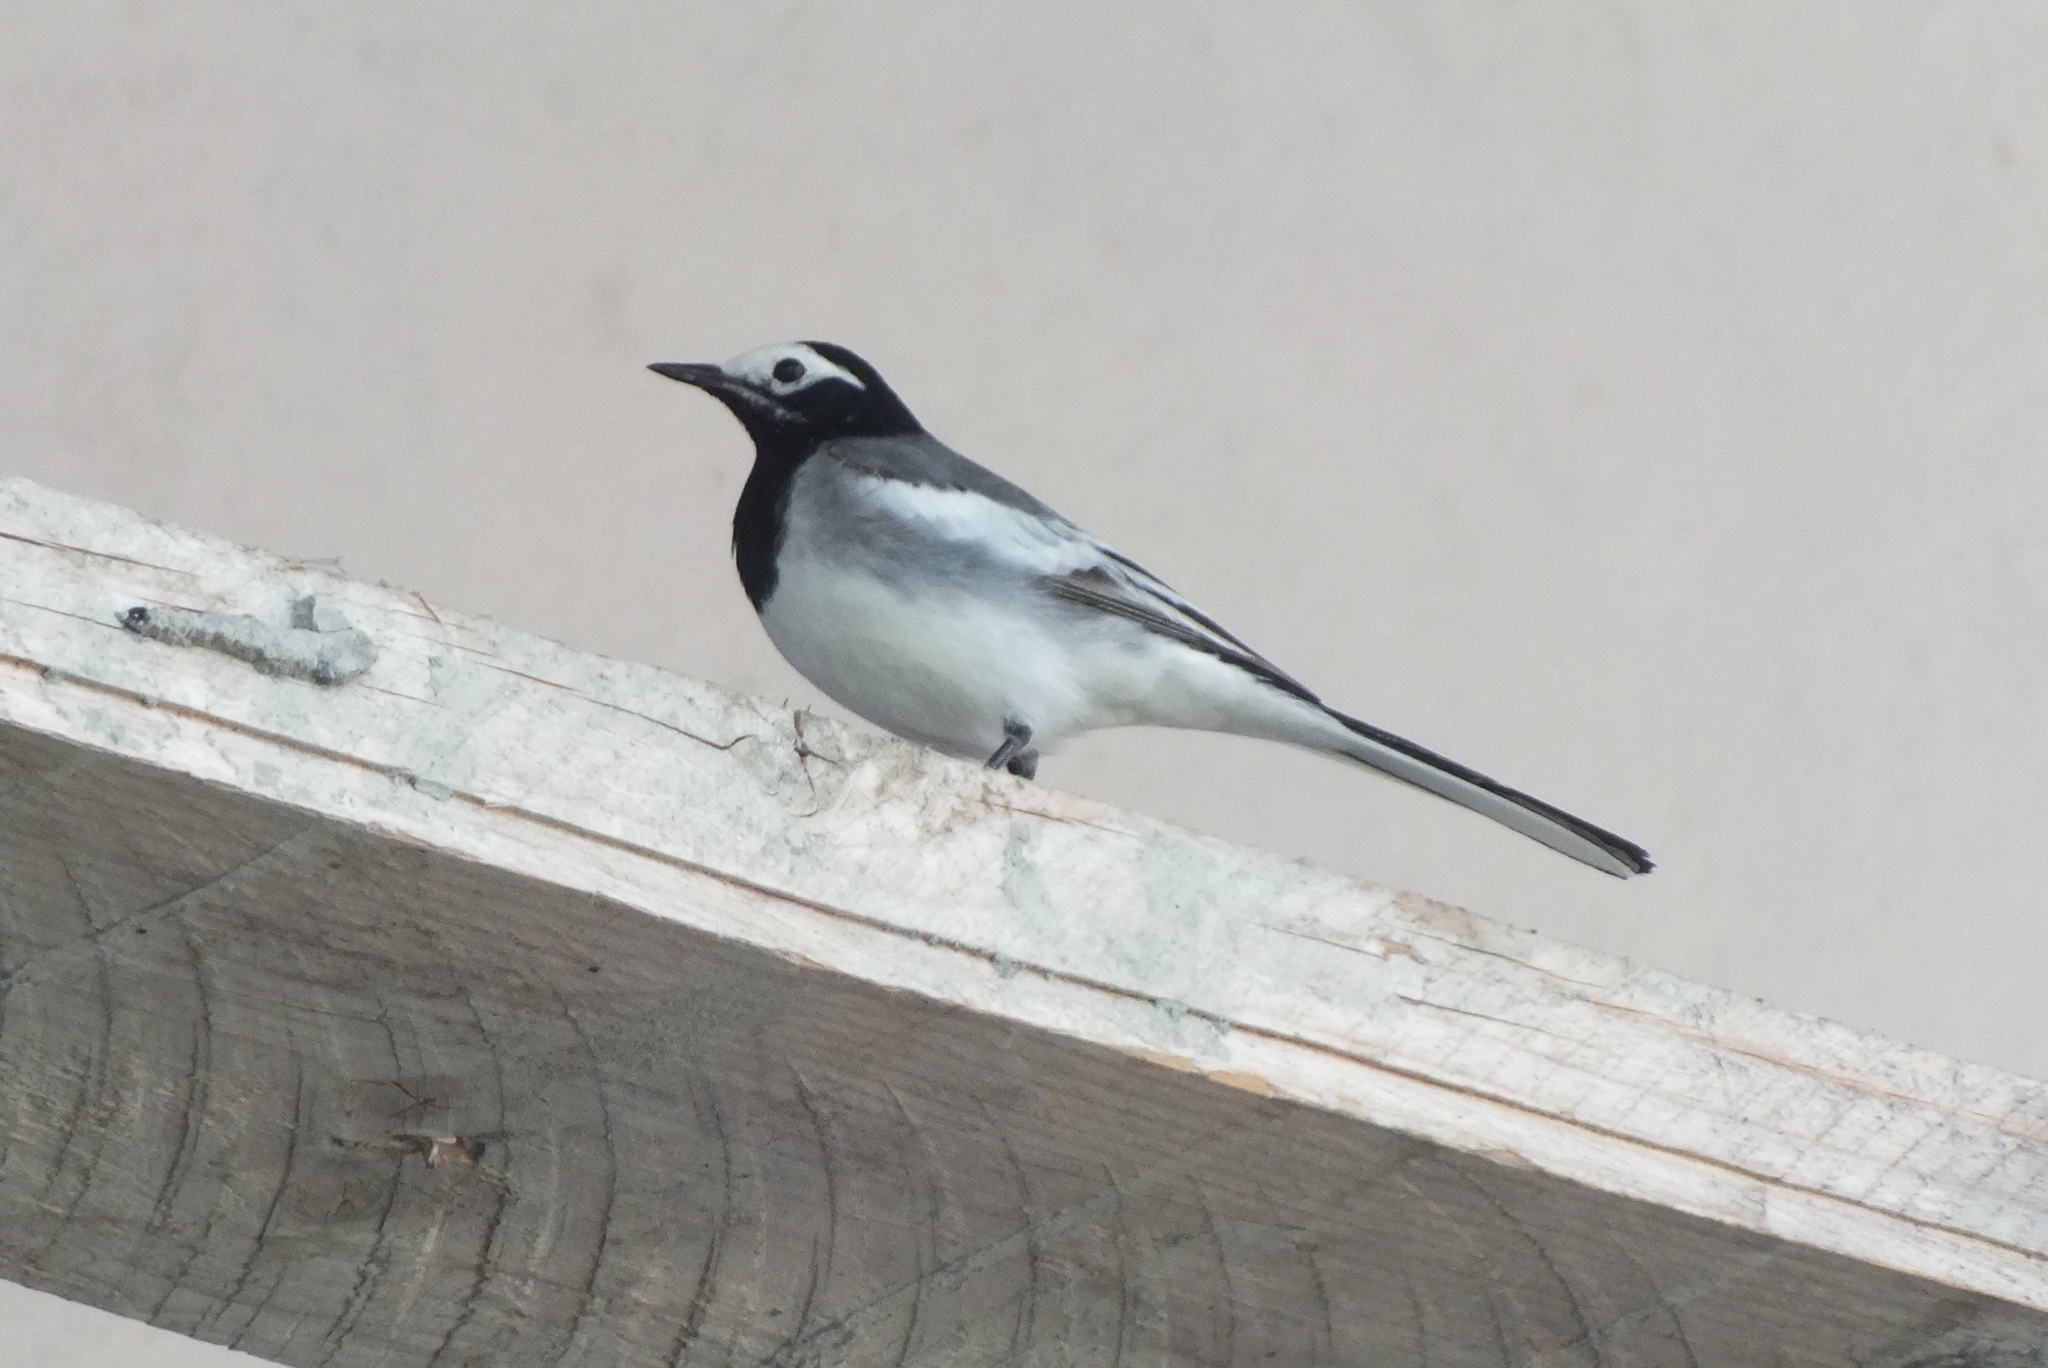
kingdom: Animalia
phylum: Chordata
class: Aves
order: Passeriformes
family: Motacillidae
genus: Motacilla
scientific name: Motacilla alba
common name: White wagtail
